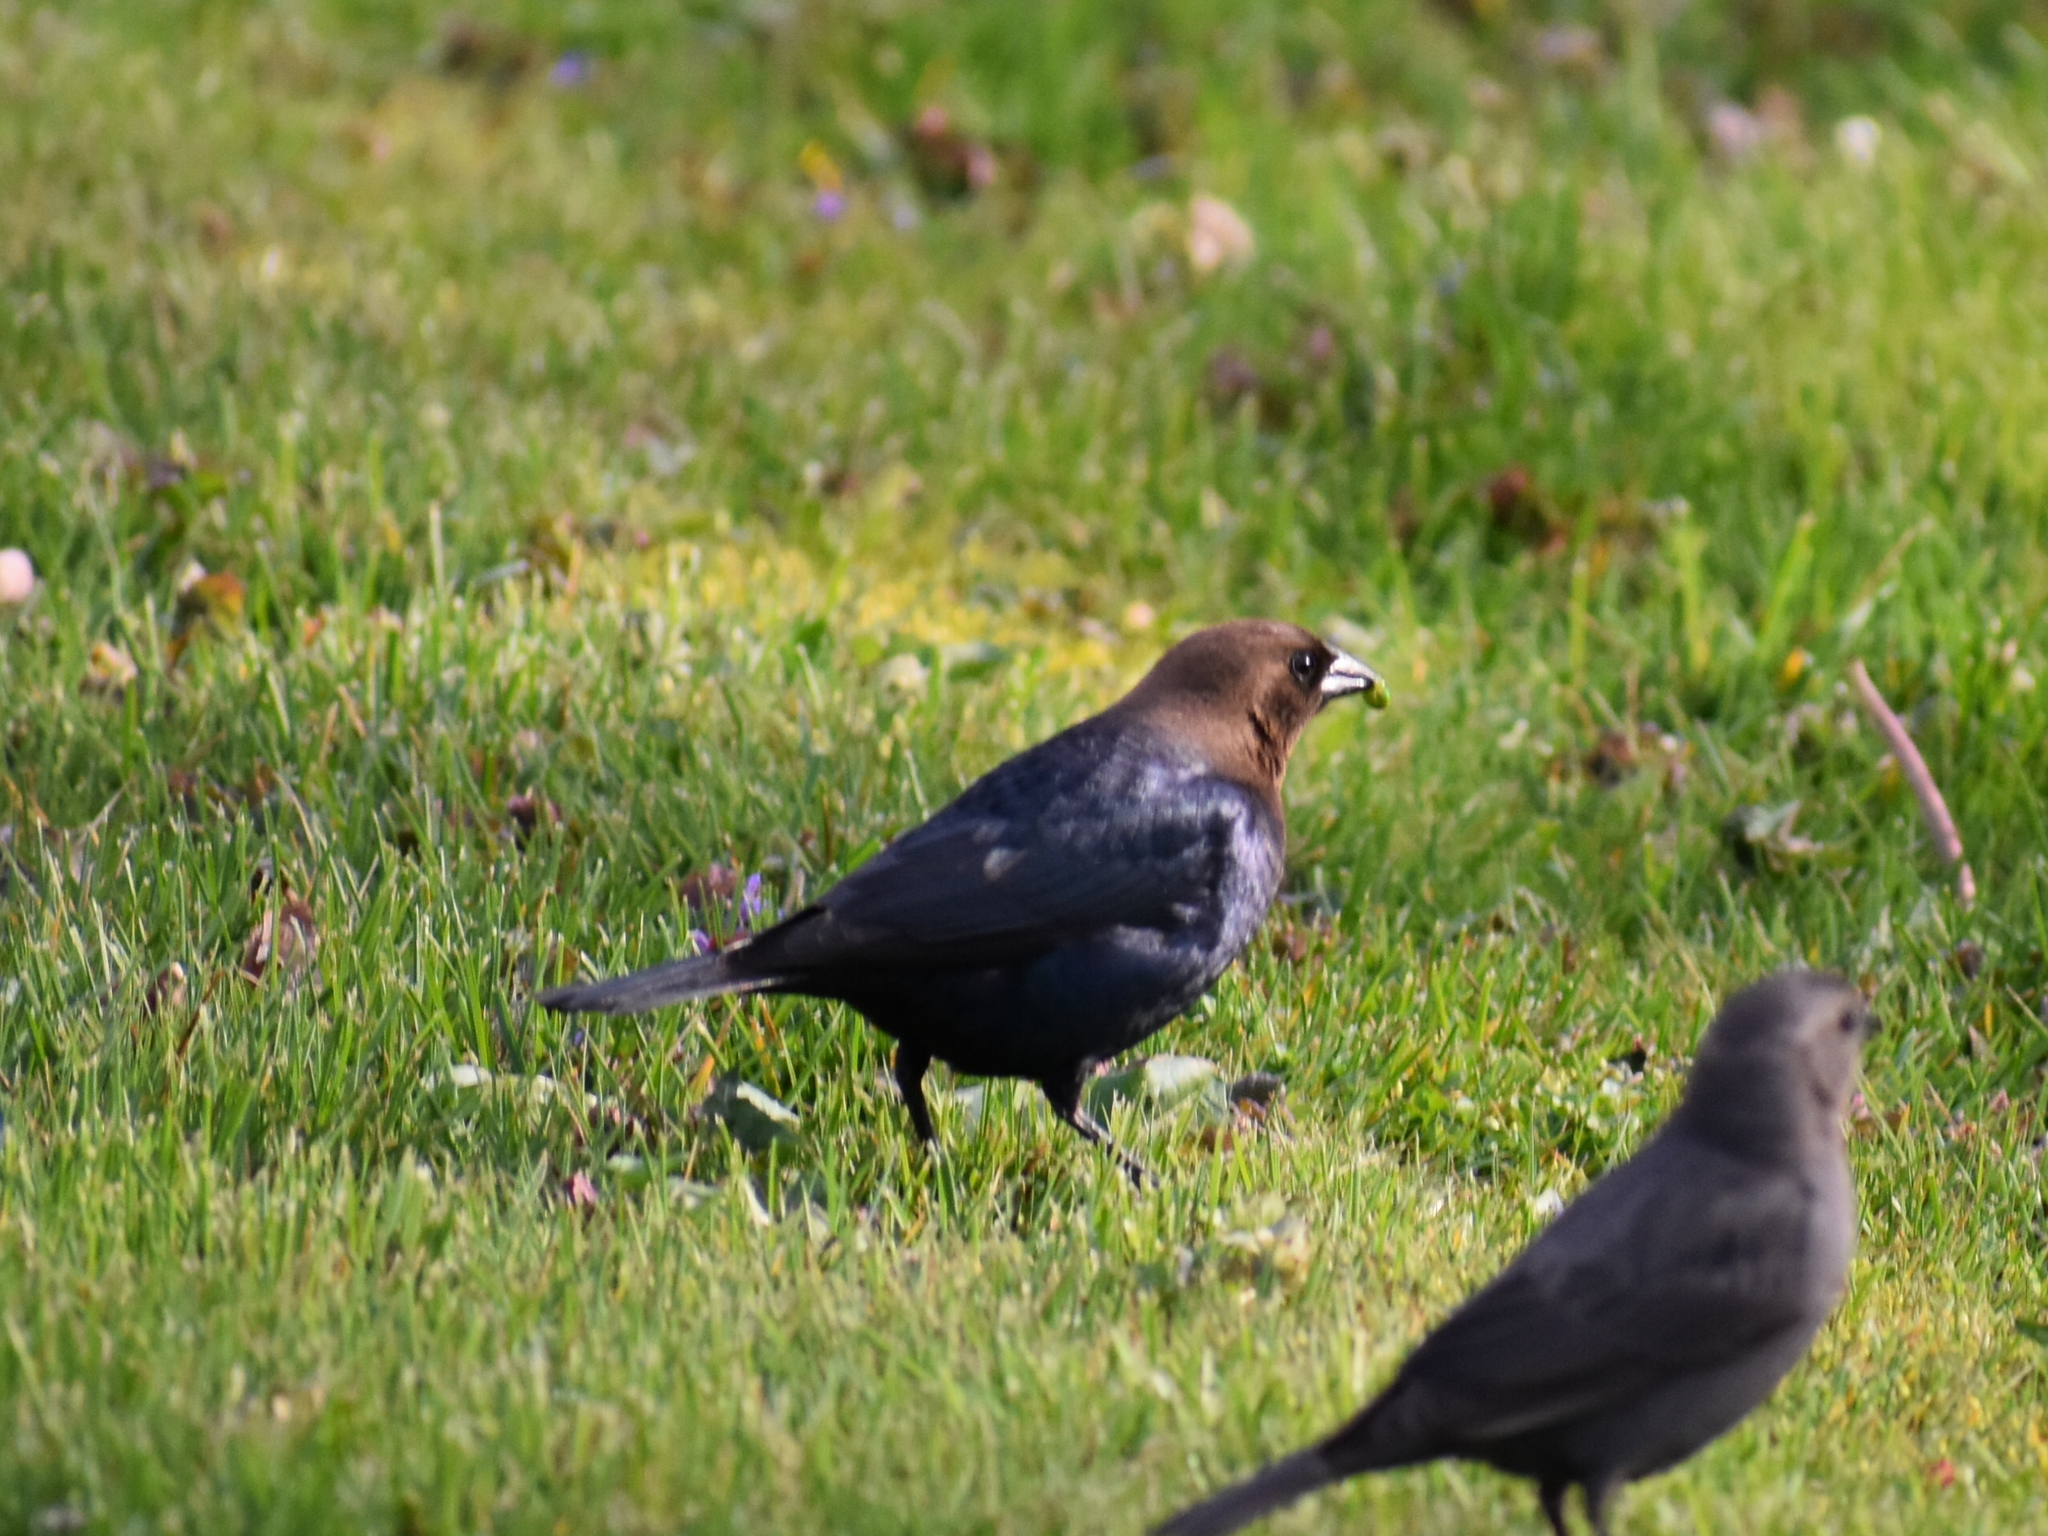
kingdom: Animalia
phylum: Chordata
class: Aves
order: Passeriformes
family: Icteridae
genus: Molothrus
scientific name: Molothrus ater
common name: Brown-headed cowbird
